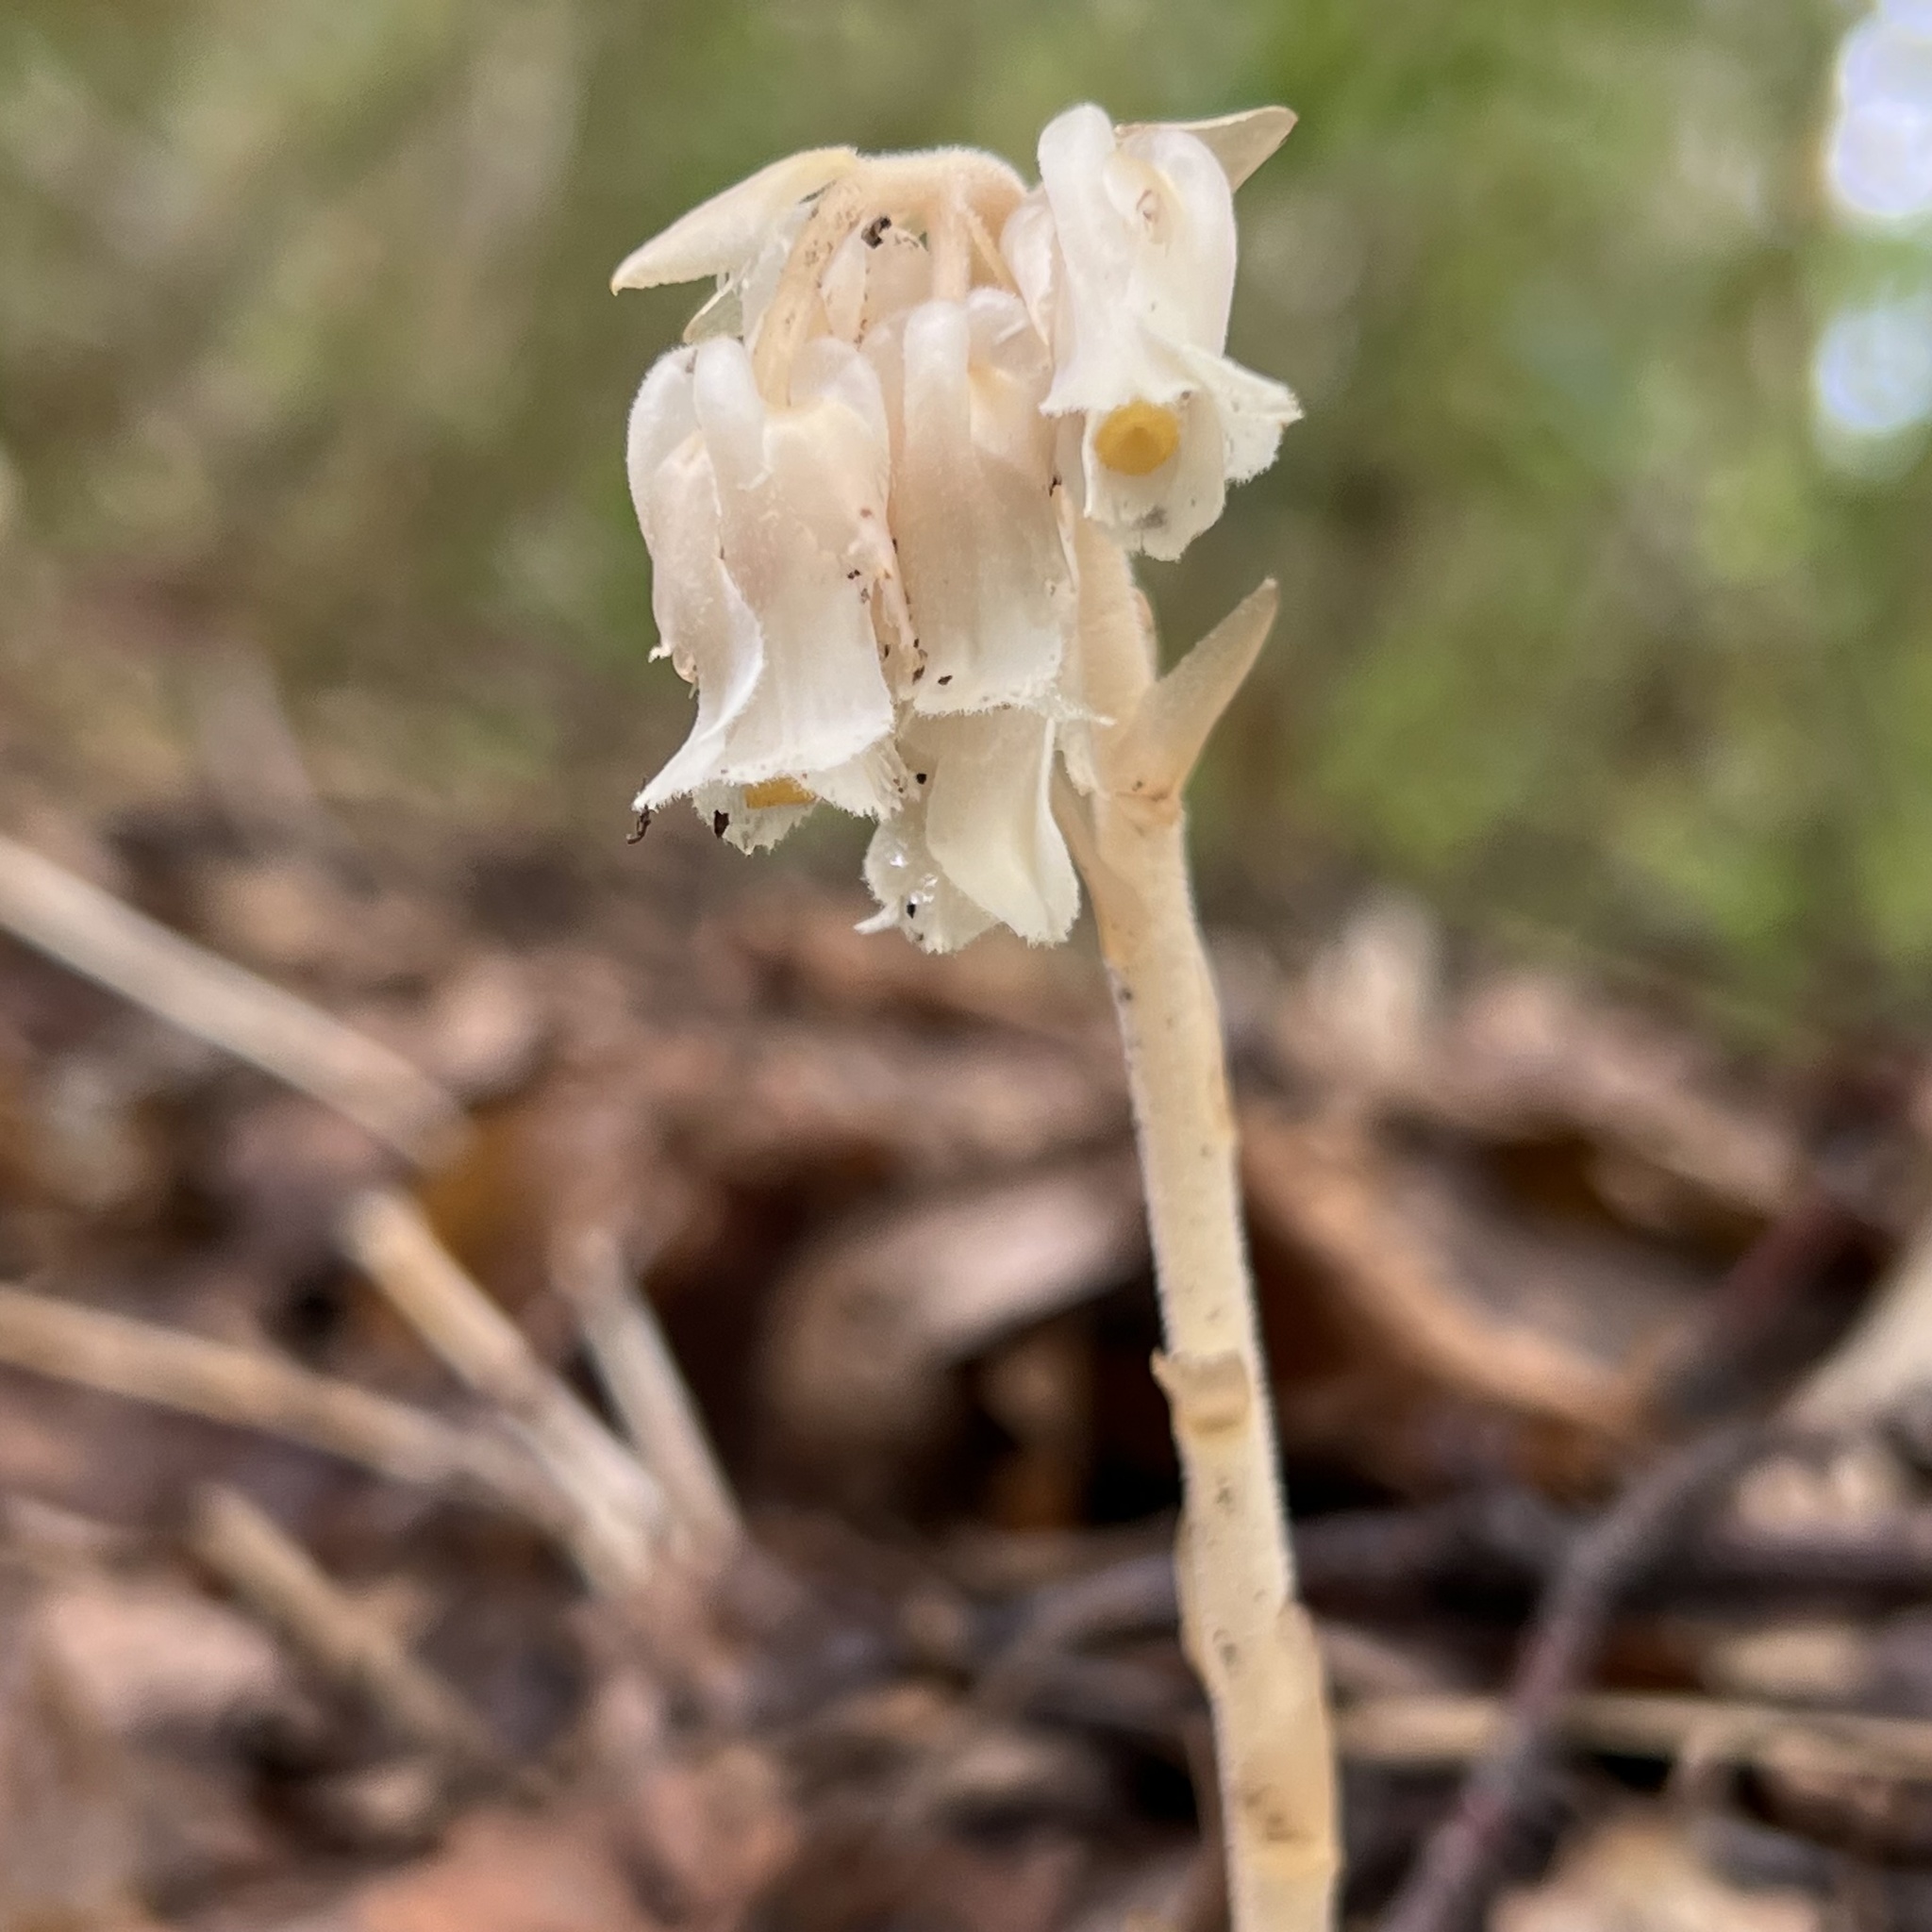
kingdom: Plantae
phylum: Tracheophyta
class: Magnoliopsida
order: Ericales
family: Ericaceae
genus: Hypopitys
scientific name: Hypopitys monotropa
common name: Yellow bird's-nest
